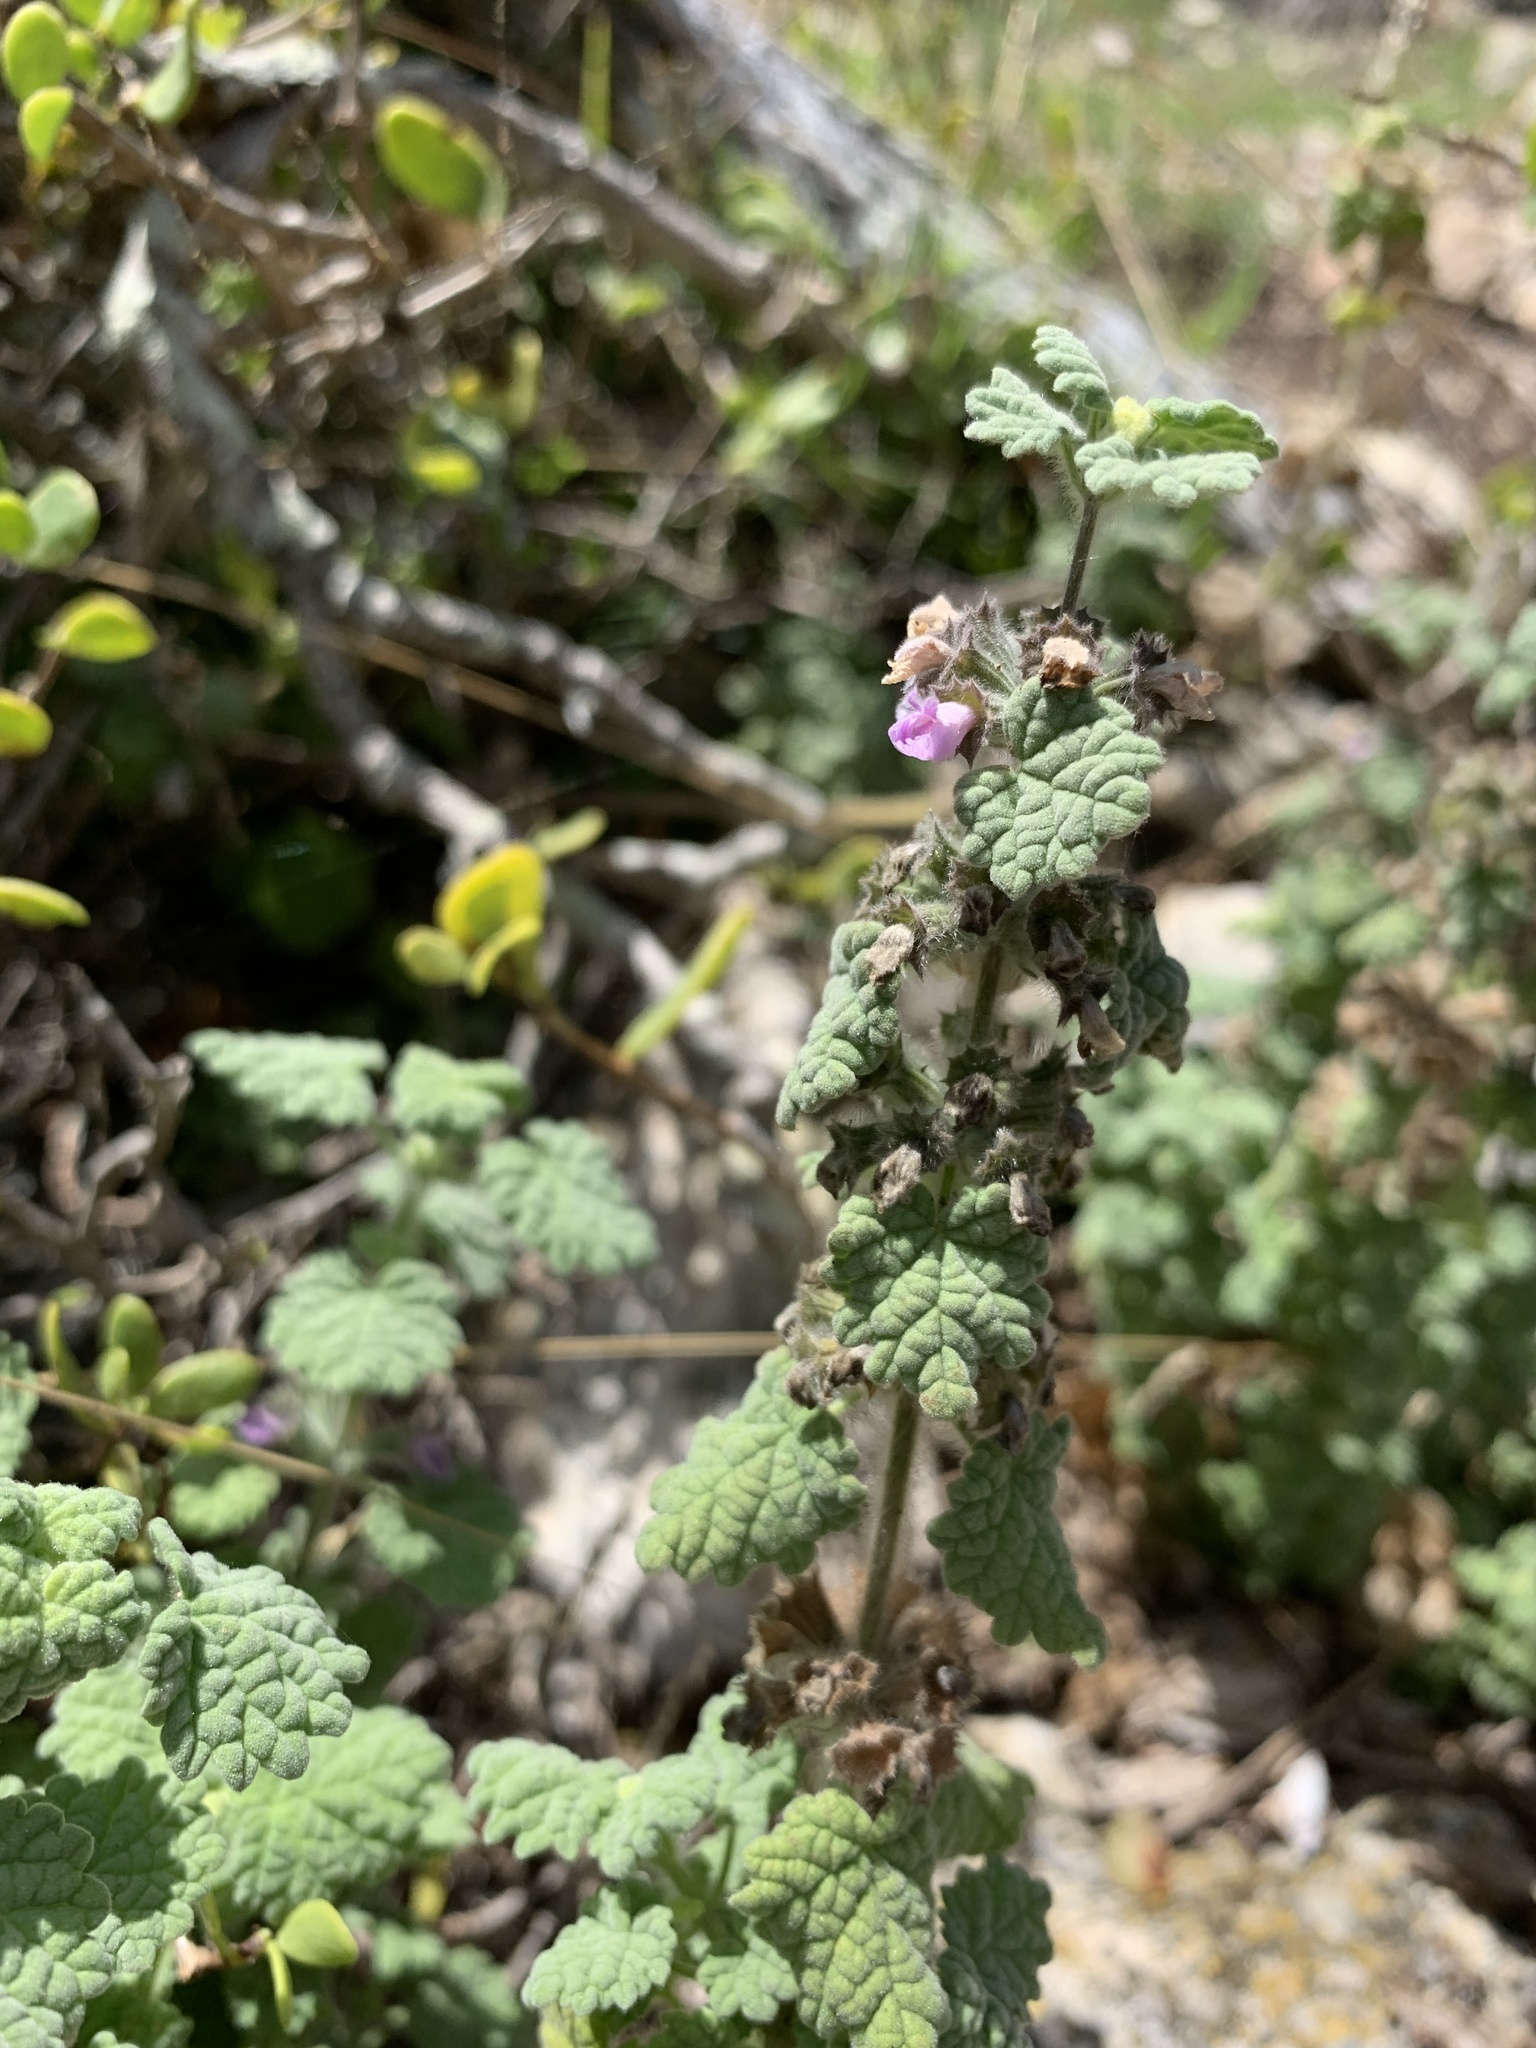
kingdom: Plantae
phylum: Tracheophyta
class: Magnoliopsida
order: Lamiales
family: Lamiaceae
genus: Pseudodictamnus
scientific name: Pseudodictamnus africanus
